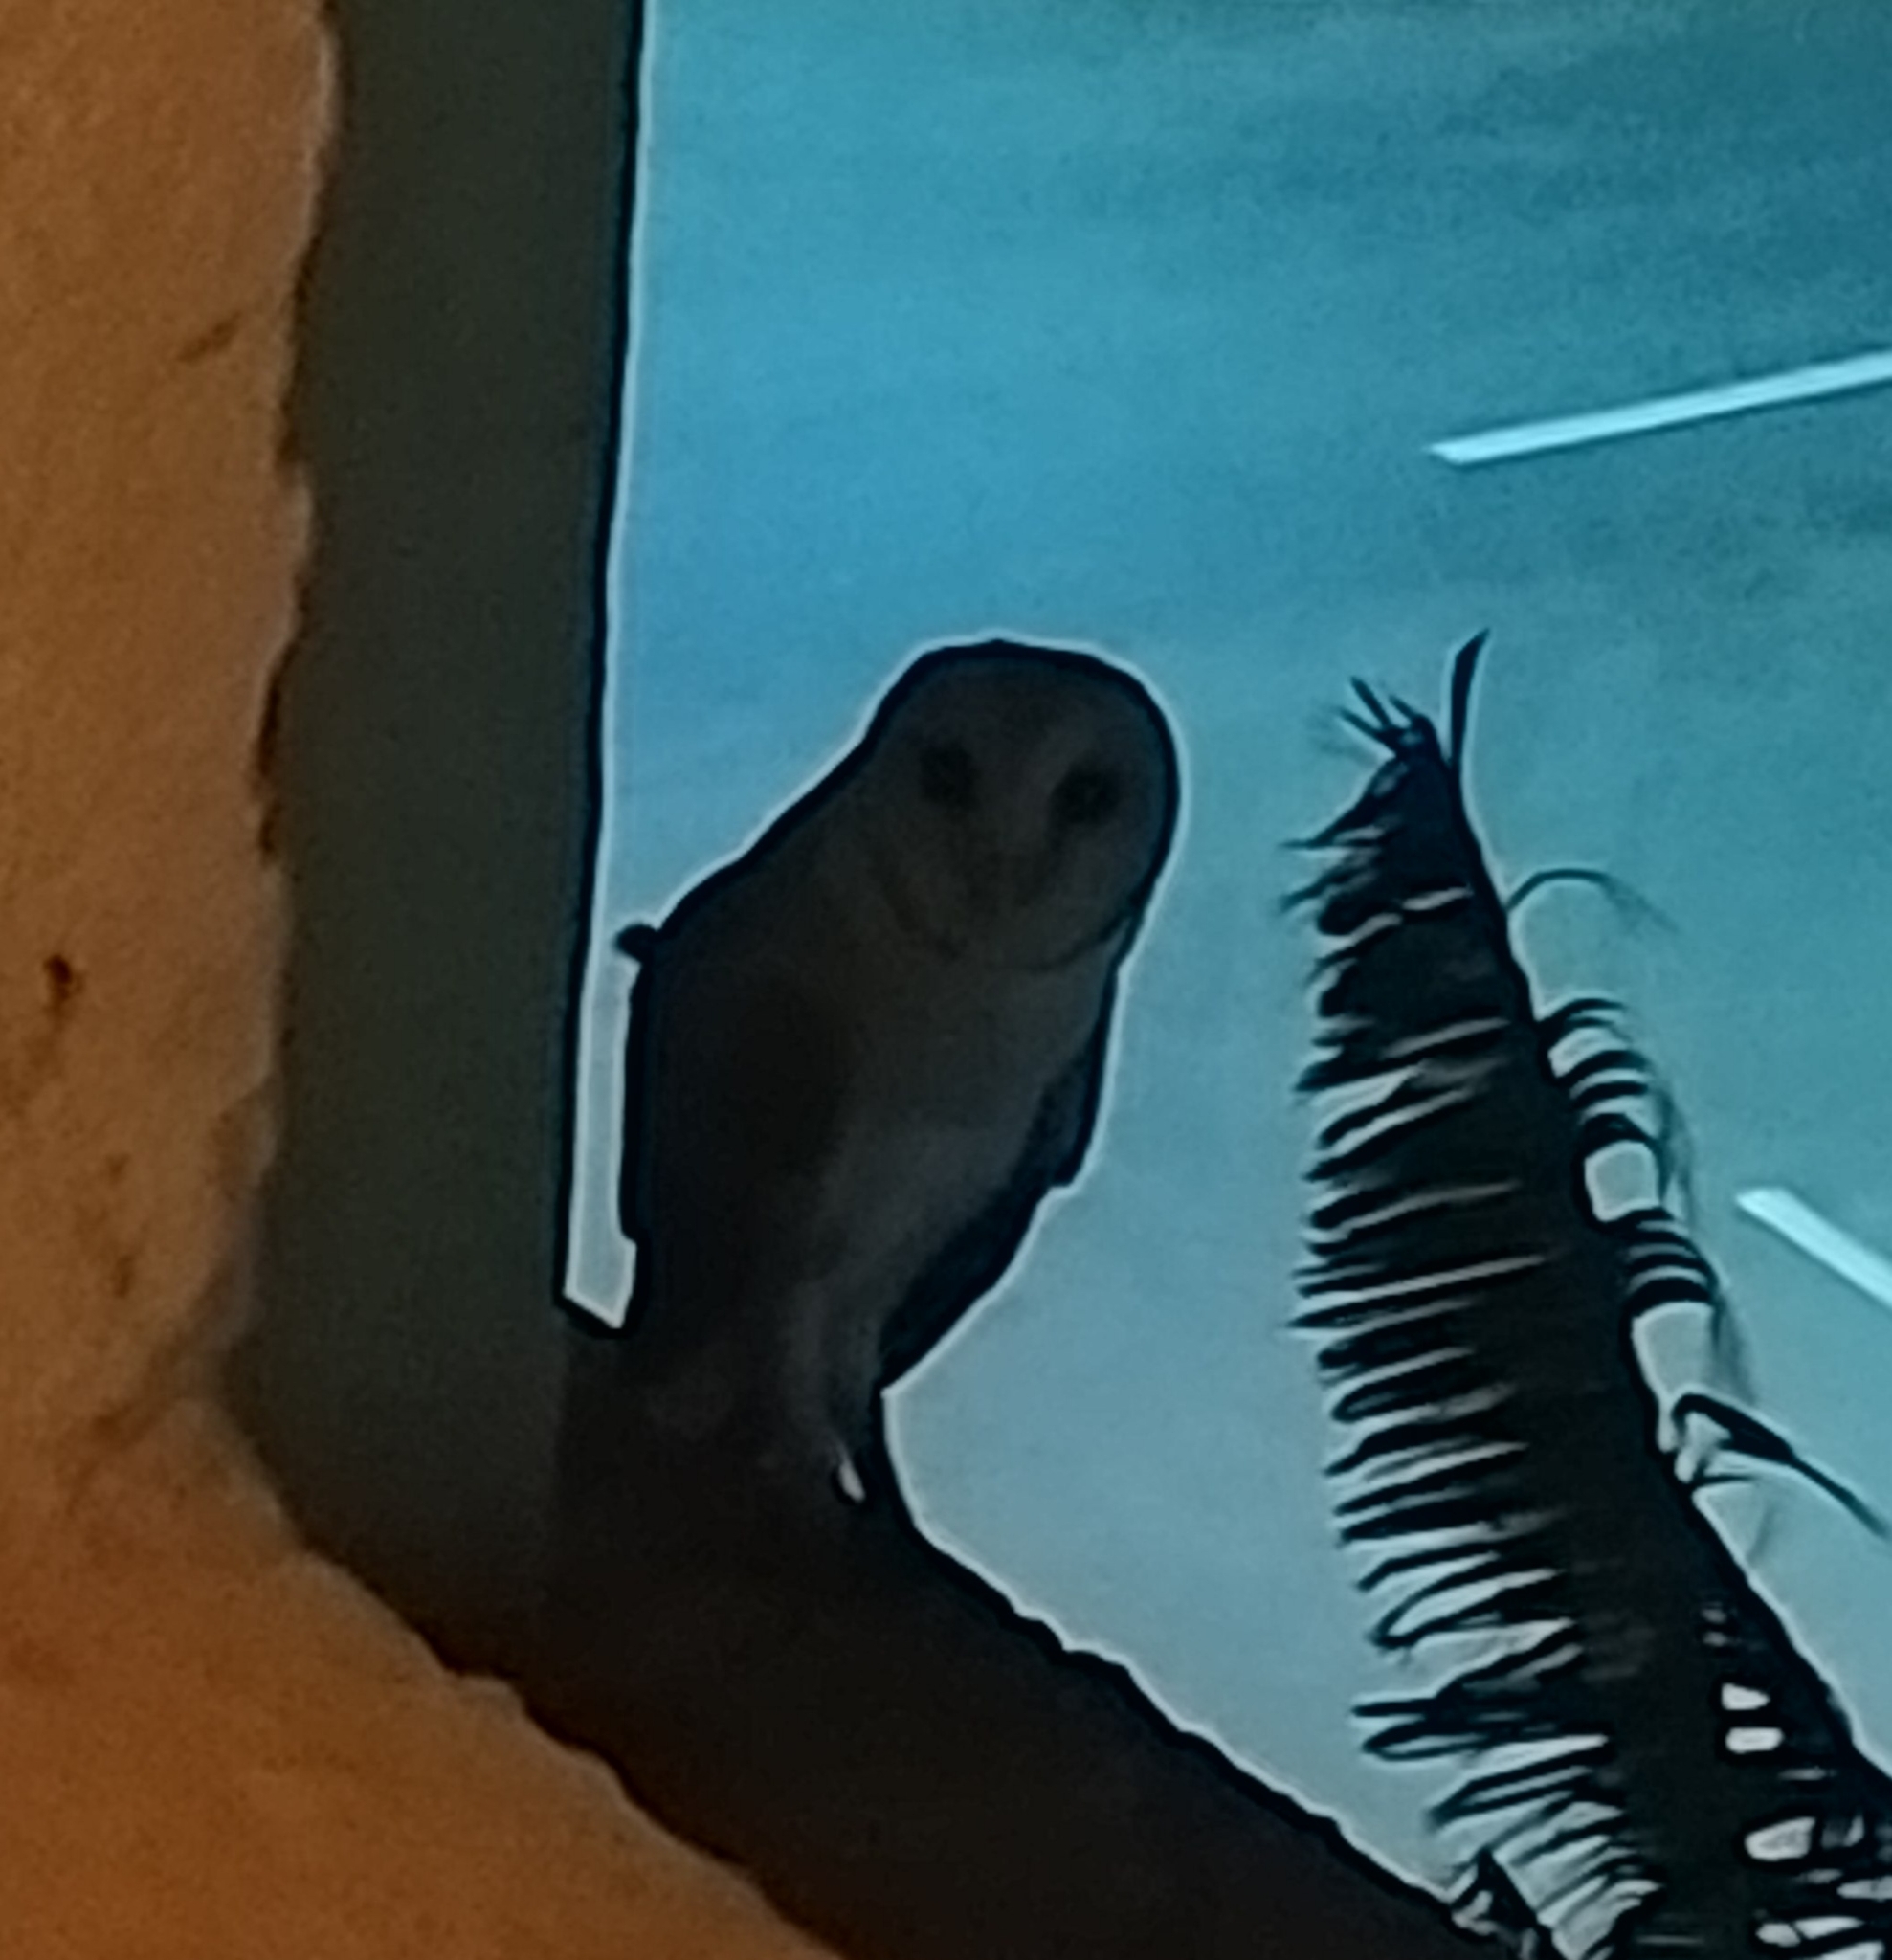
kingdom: Animalia
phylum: Chordata
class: Aves
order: Strigiformes
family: Tytonidae
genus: Tyto
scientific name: Tyto alba
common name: Barn owl
